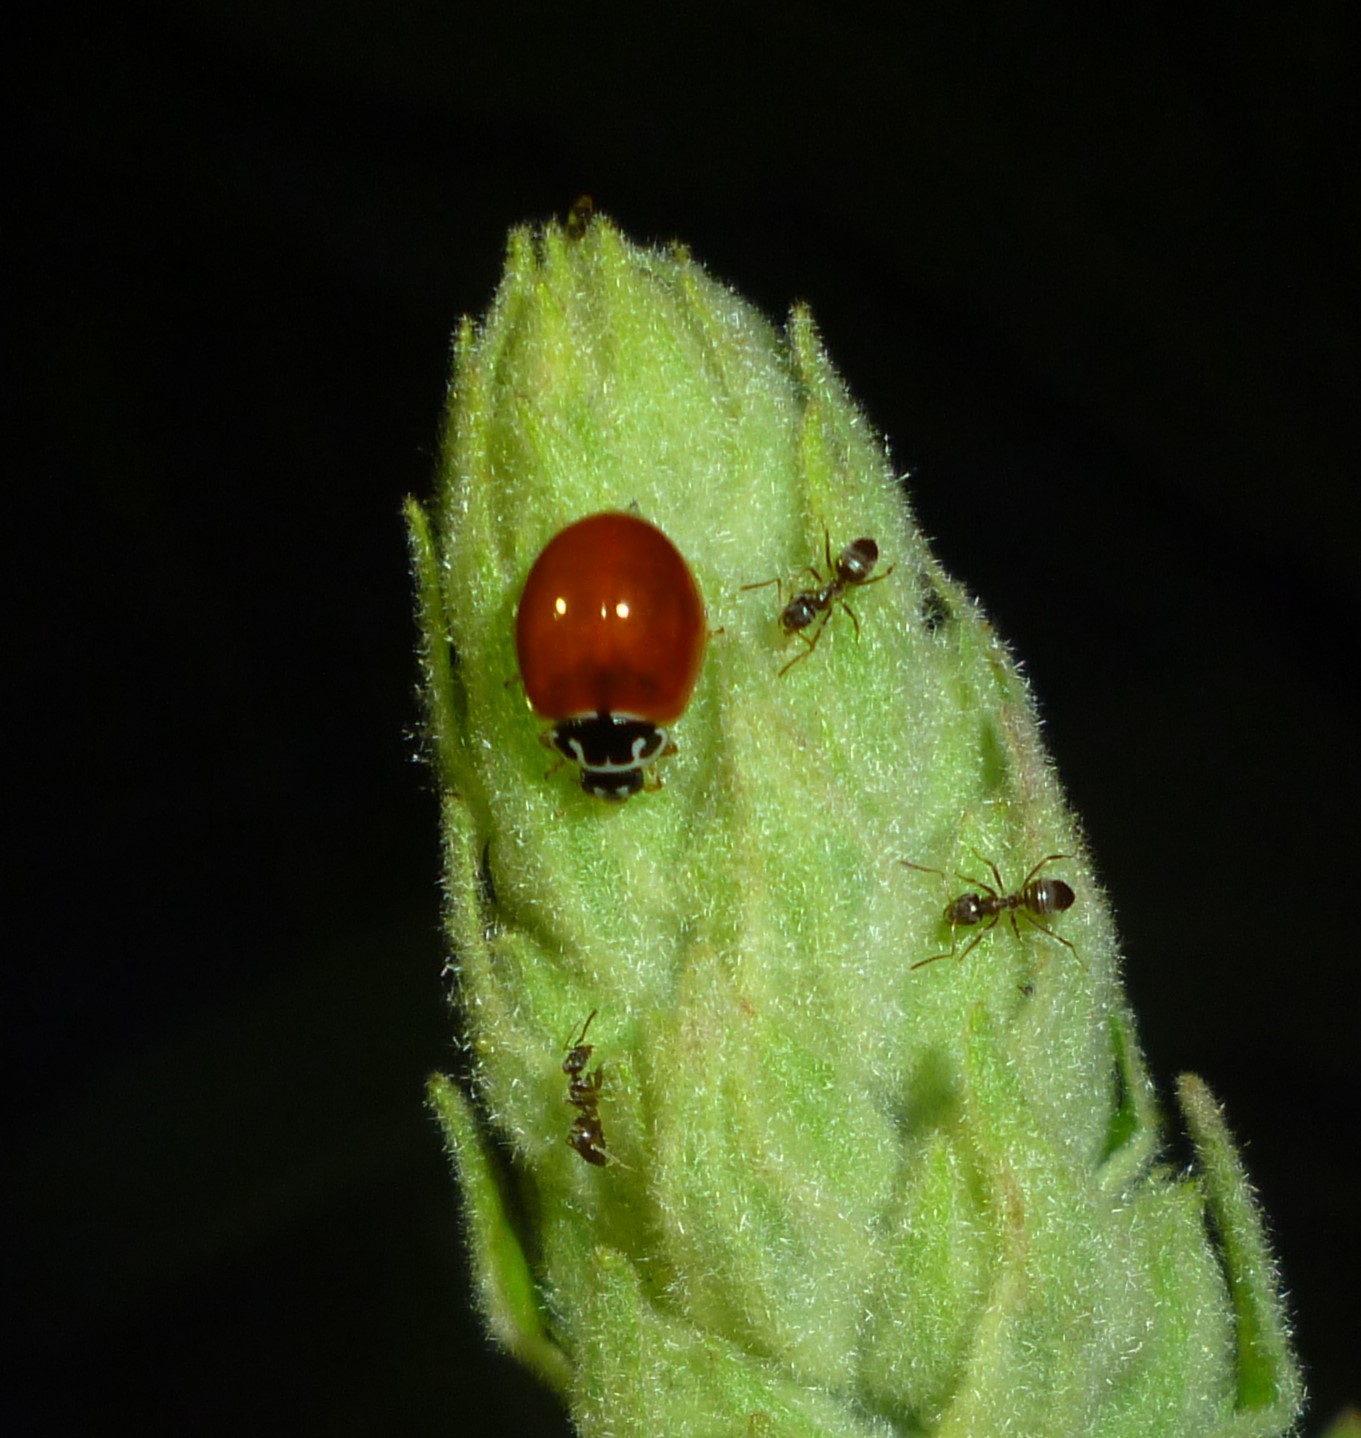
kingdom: Animalia
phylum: Arthropoda
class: Insecta
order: Hymenoptera
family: Formicidae
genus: Tapinoma
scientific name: Tapinoma sessile
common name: Odorous house ant
